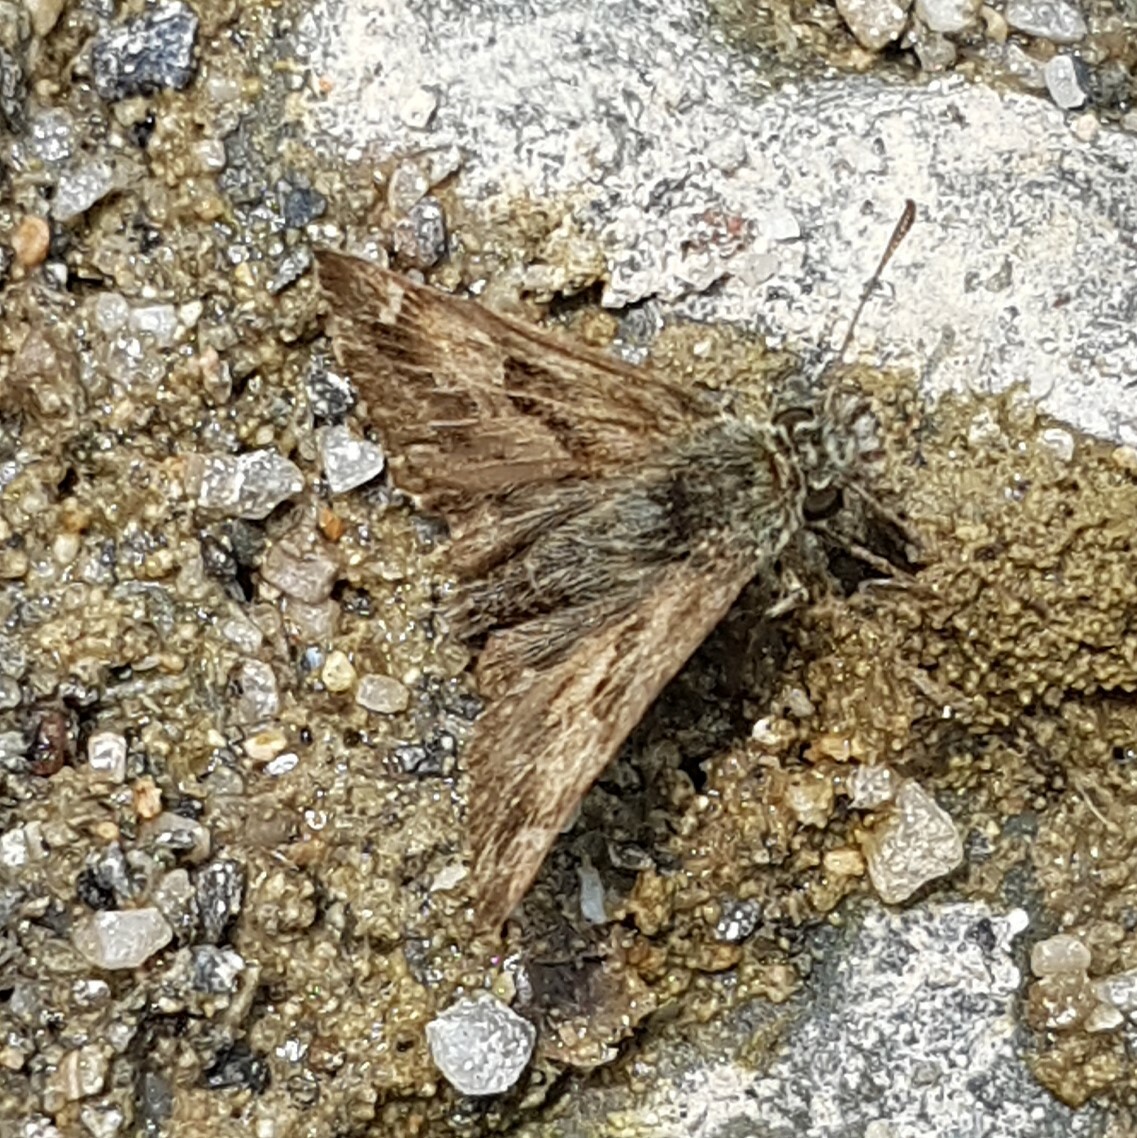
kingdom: Animalia
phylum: Arthropoda
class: Insecta
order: Lepidoptera
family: Hesperiidae
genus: Carcharodus
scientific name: Carcharodus alceae
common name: Mallow skipper
